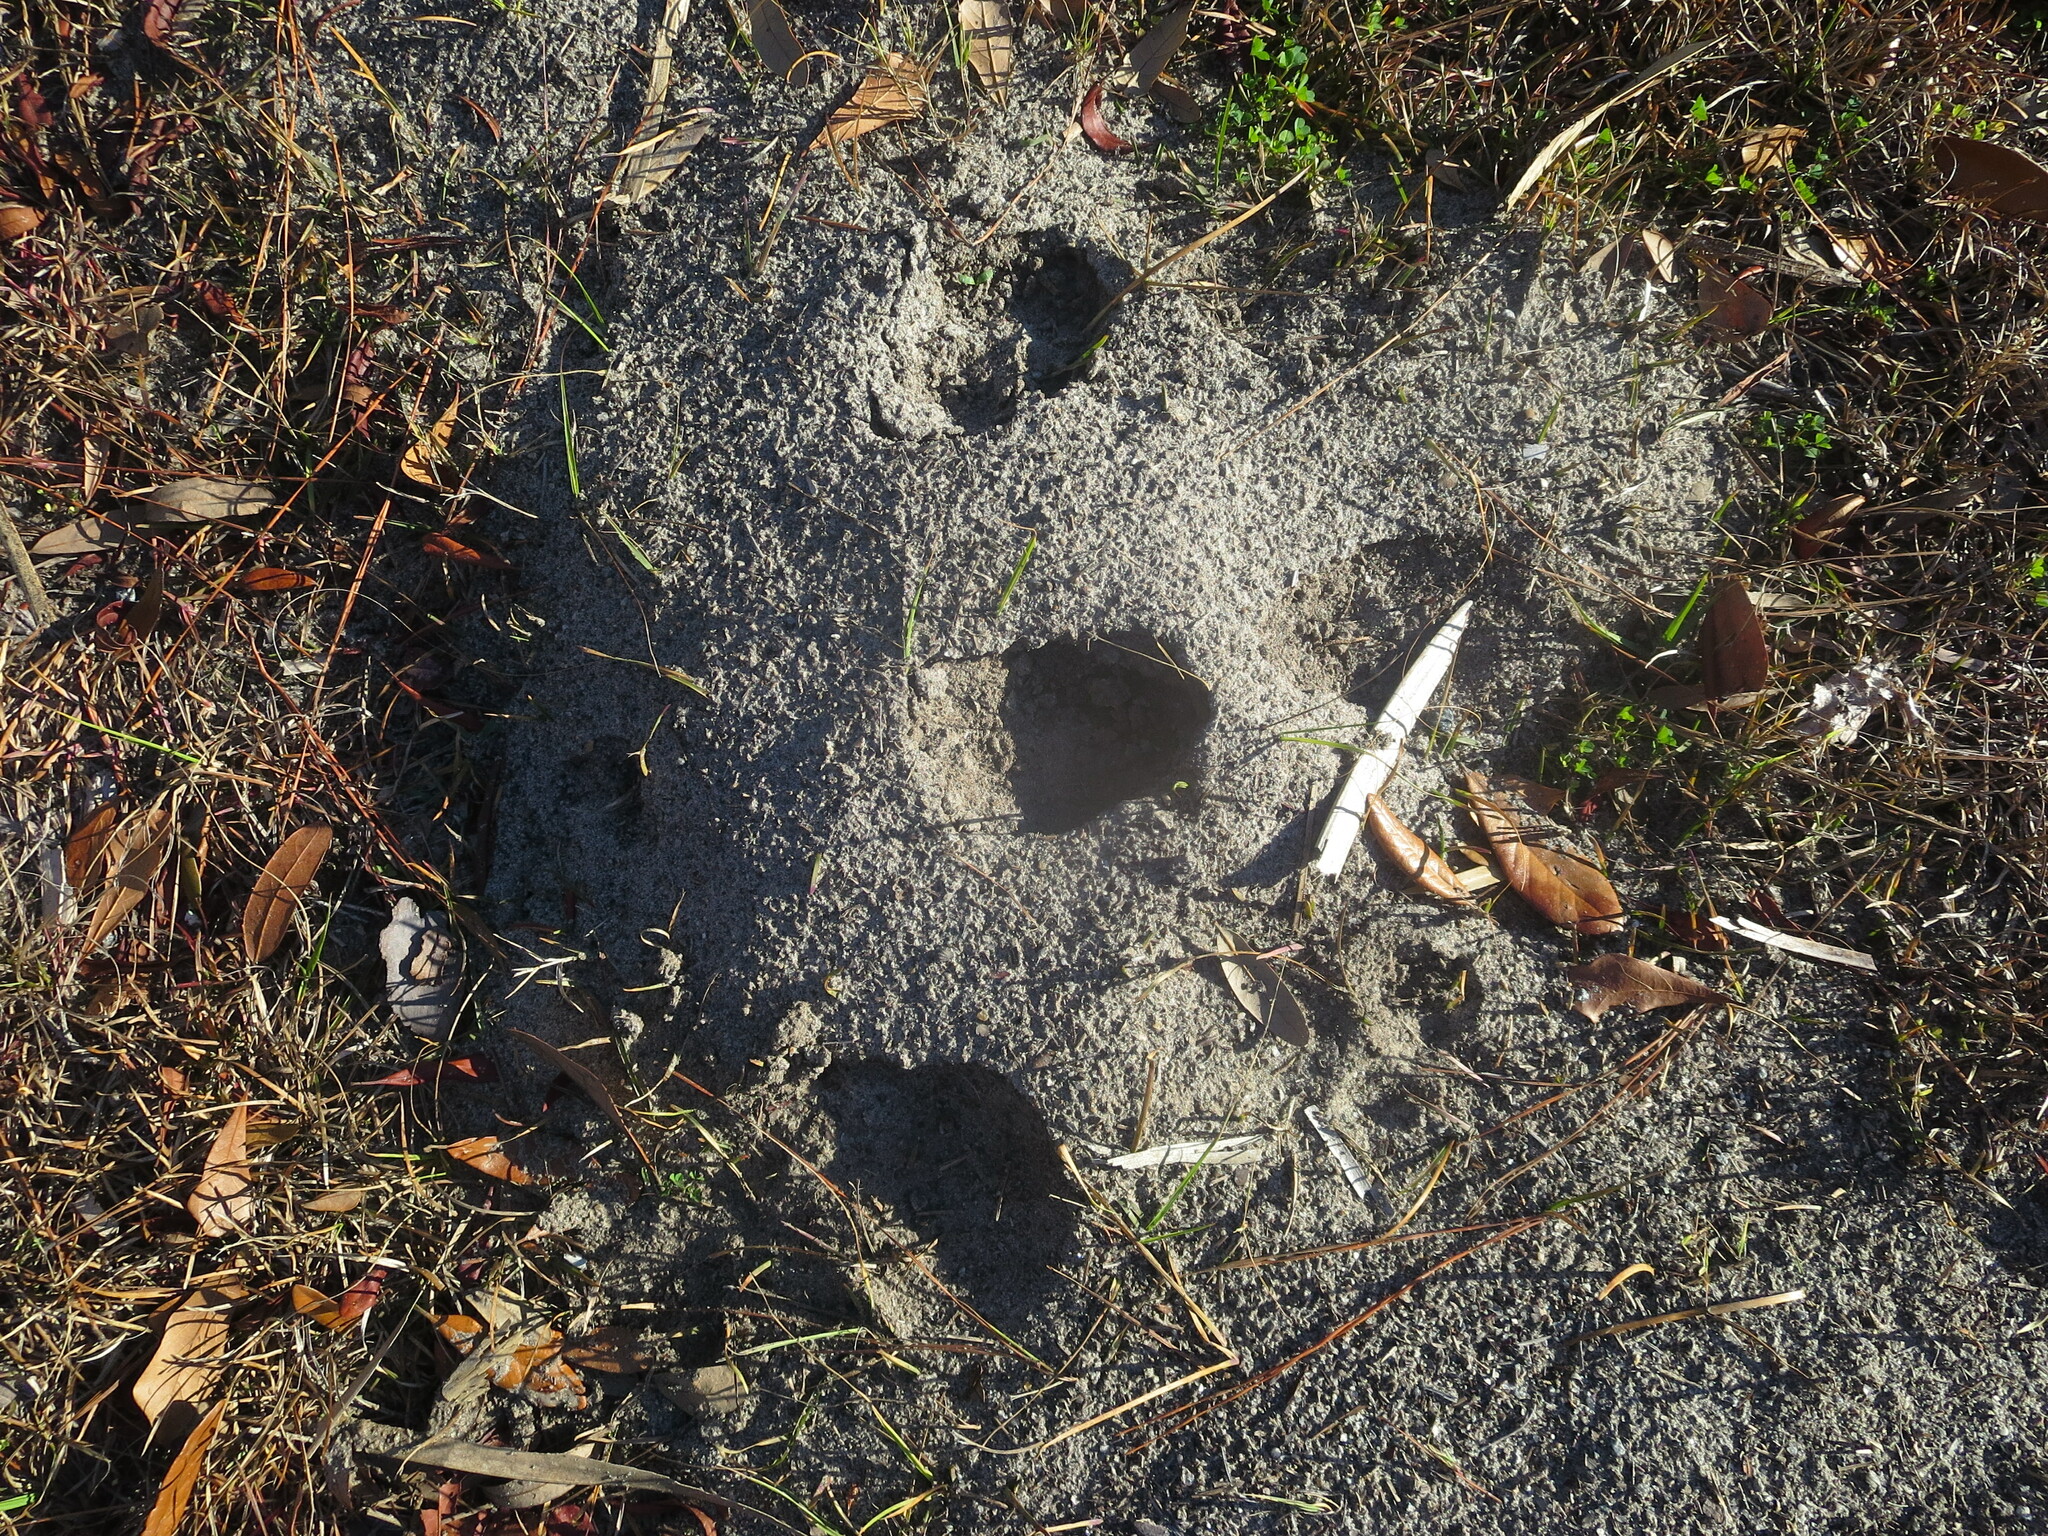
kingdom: Animalia
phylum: Arthropoda
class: Insecta
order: Hymenoptera
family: Formicidae
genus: Solenopsis
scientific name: Solenopsis invicta
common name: Red imported fire ant
